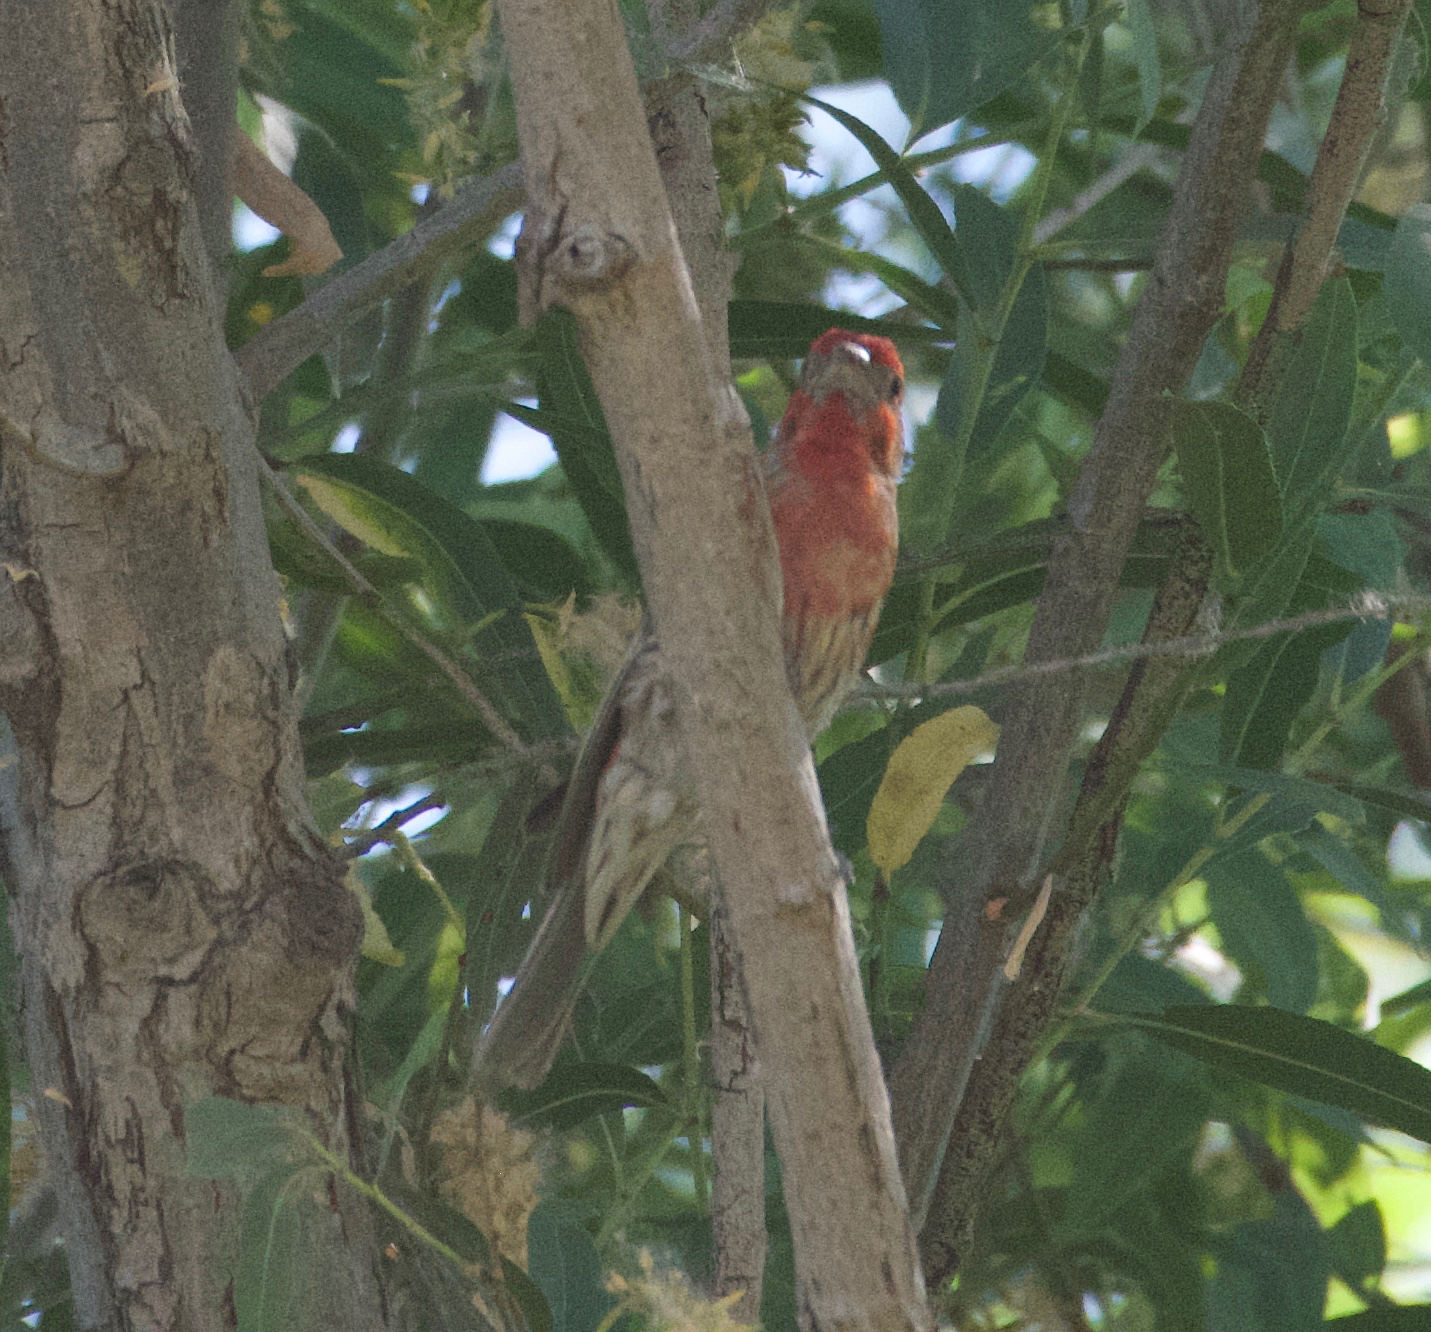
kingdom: Animalia
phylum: Chordata
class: Aves
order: Passeriformes
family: Fringillidae
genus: Haemorhous
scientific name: Haemorhous mexicanus
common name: House finch
